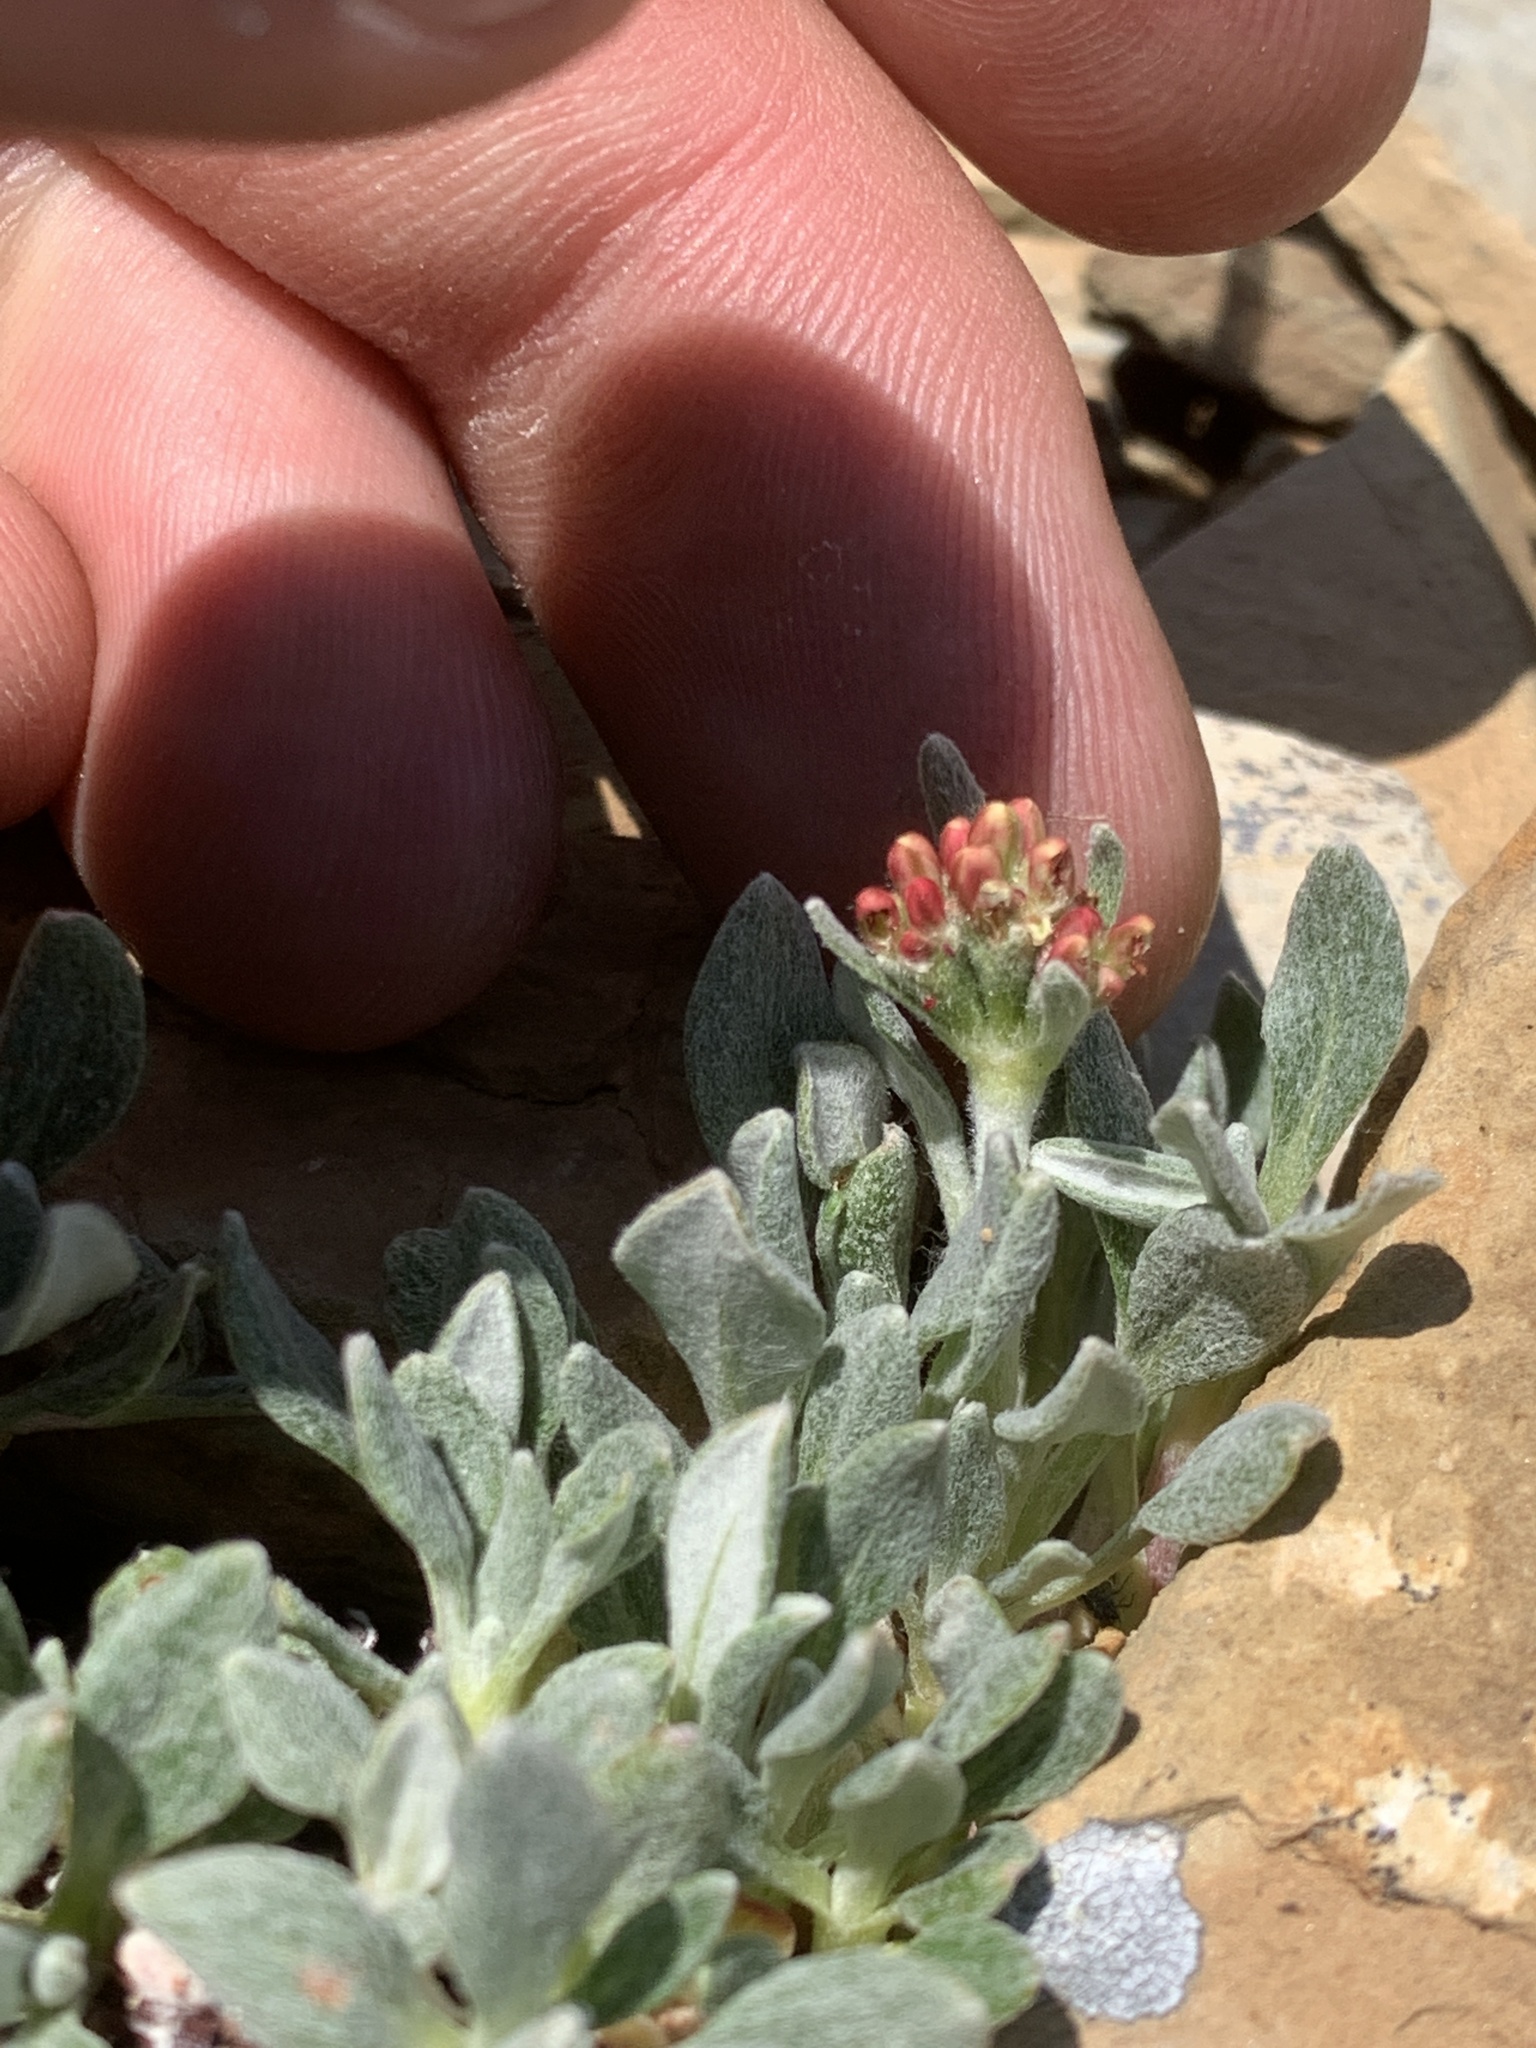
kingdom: Plantae
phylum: Tracheophyta
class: Magnoliopsida
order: Caryophyllales
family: Polygonaceae
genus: Eriogonum
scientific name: Eriogonum androsaceum
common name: Rock-jasmine wild buckwheat
